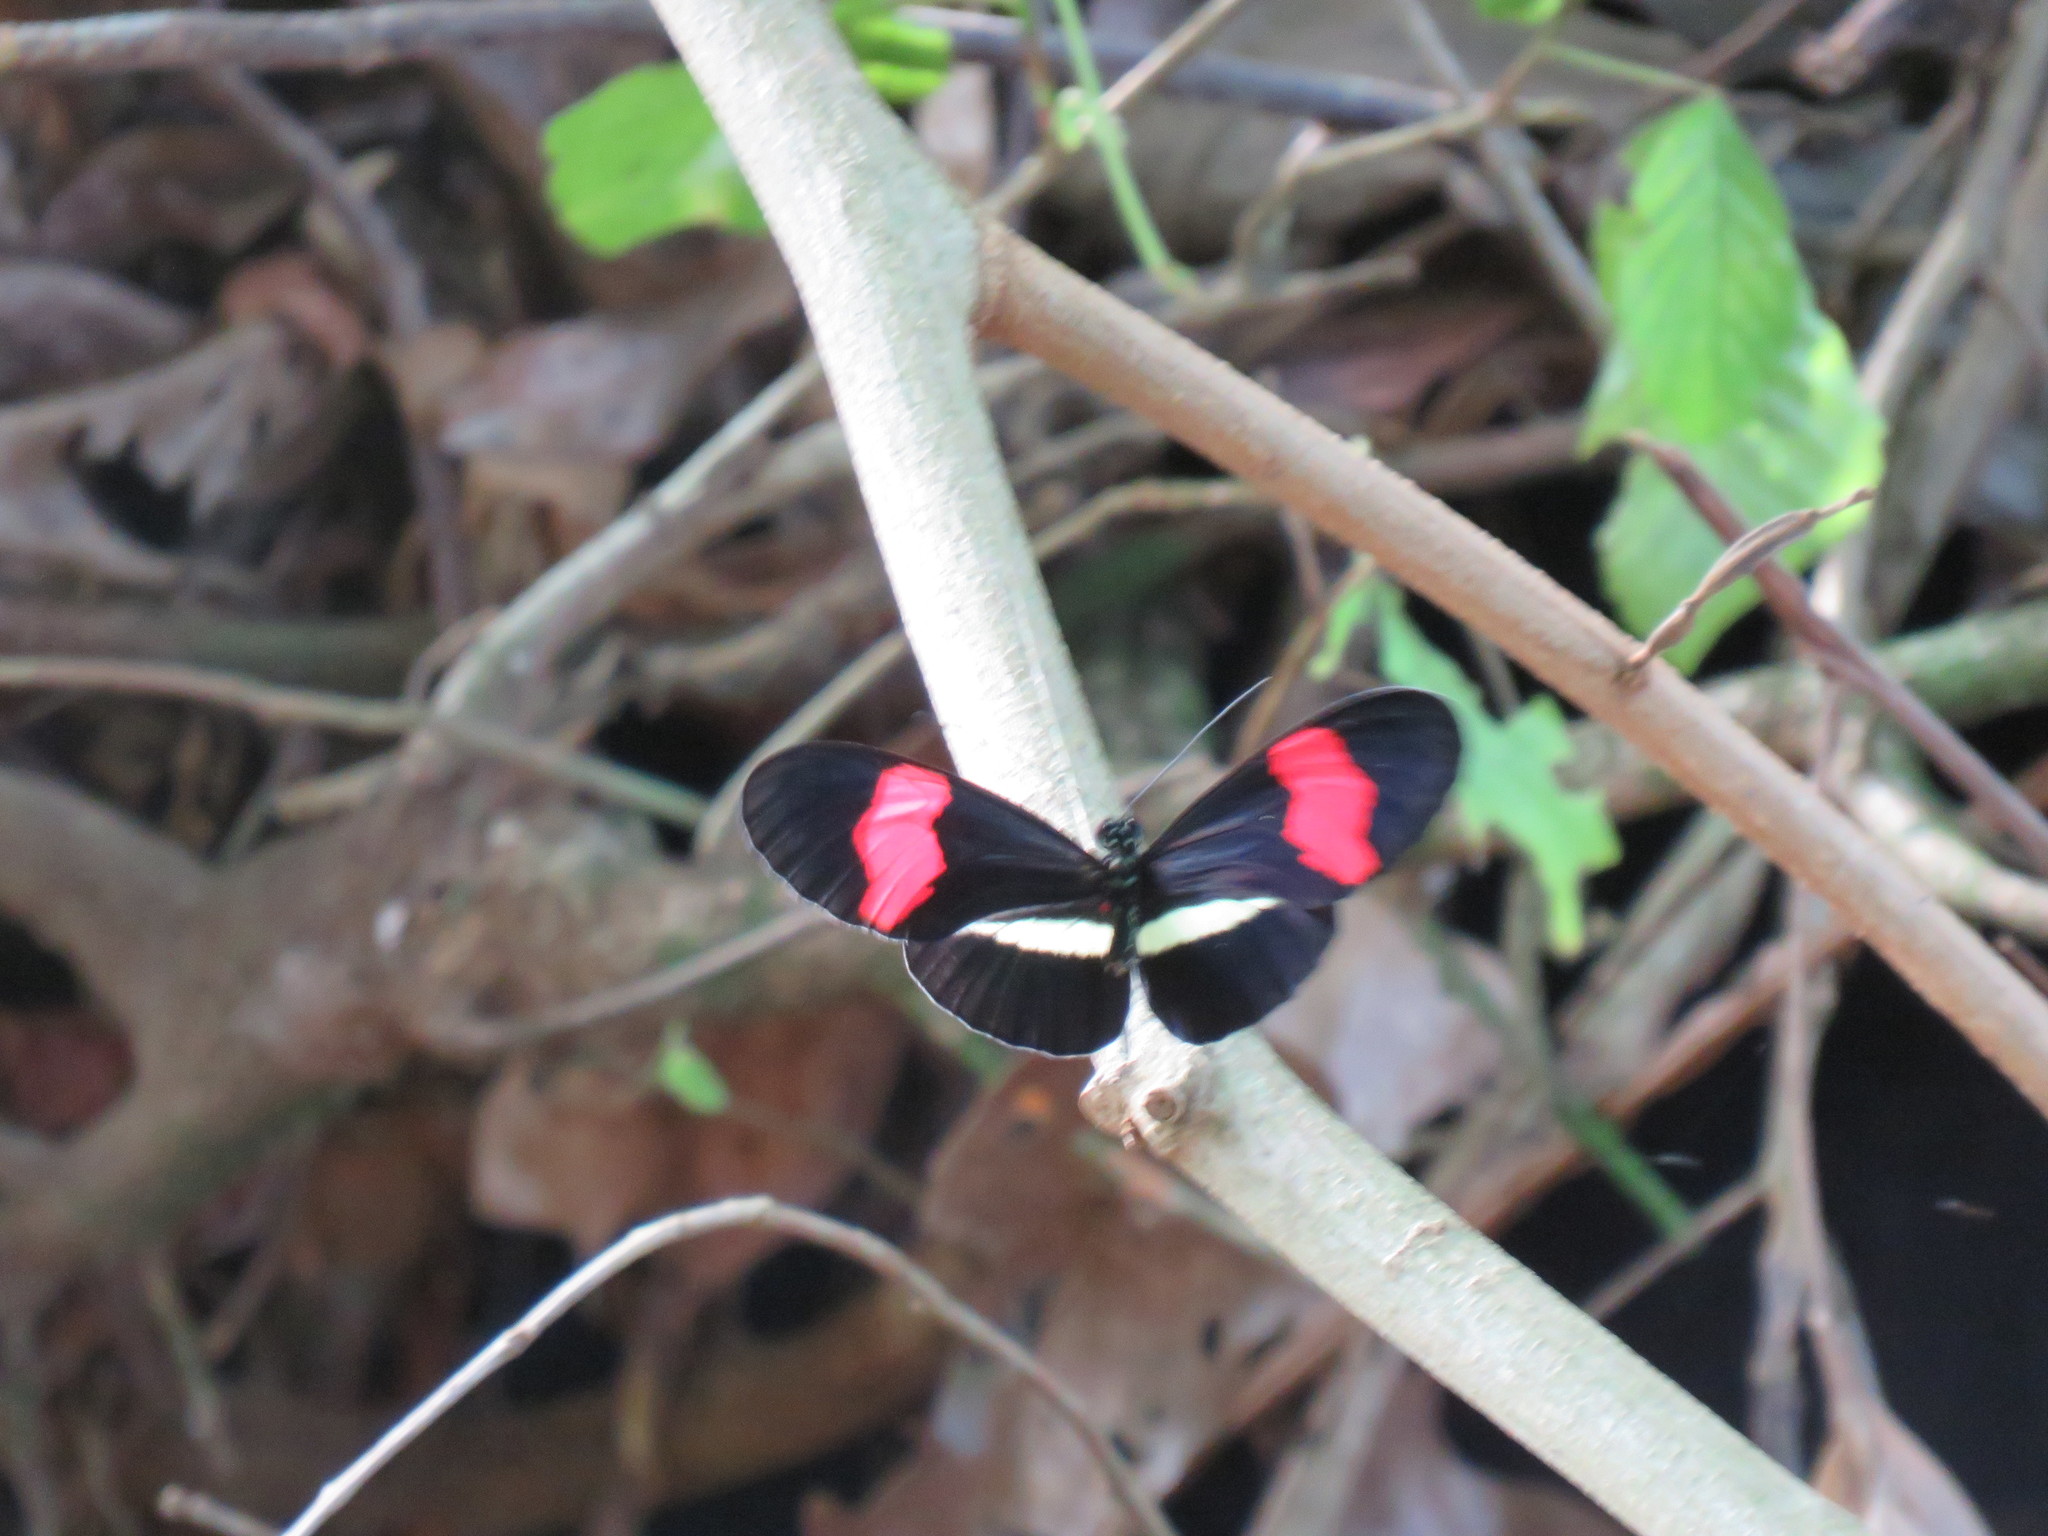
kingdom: Animalia
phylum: Arthropoda
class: Insecta
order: Lepidoptera
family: Nymphalidae
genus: Tirumala
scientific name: Tirumala petiverana
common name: Blue monarch
